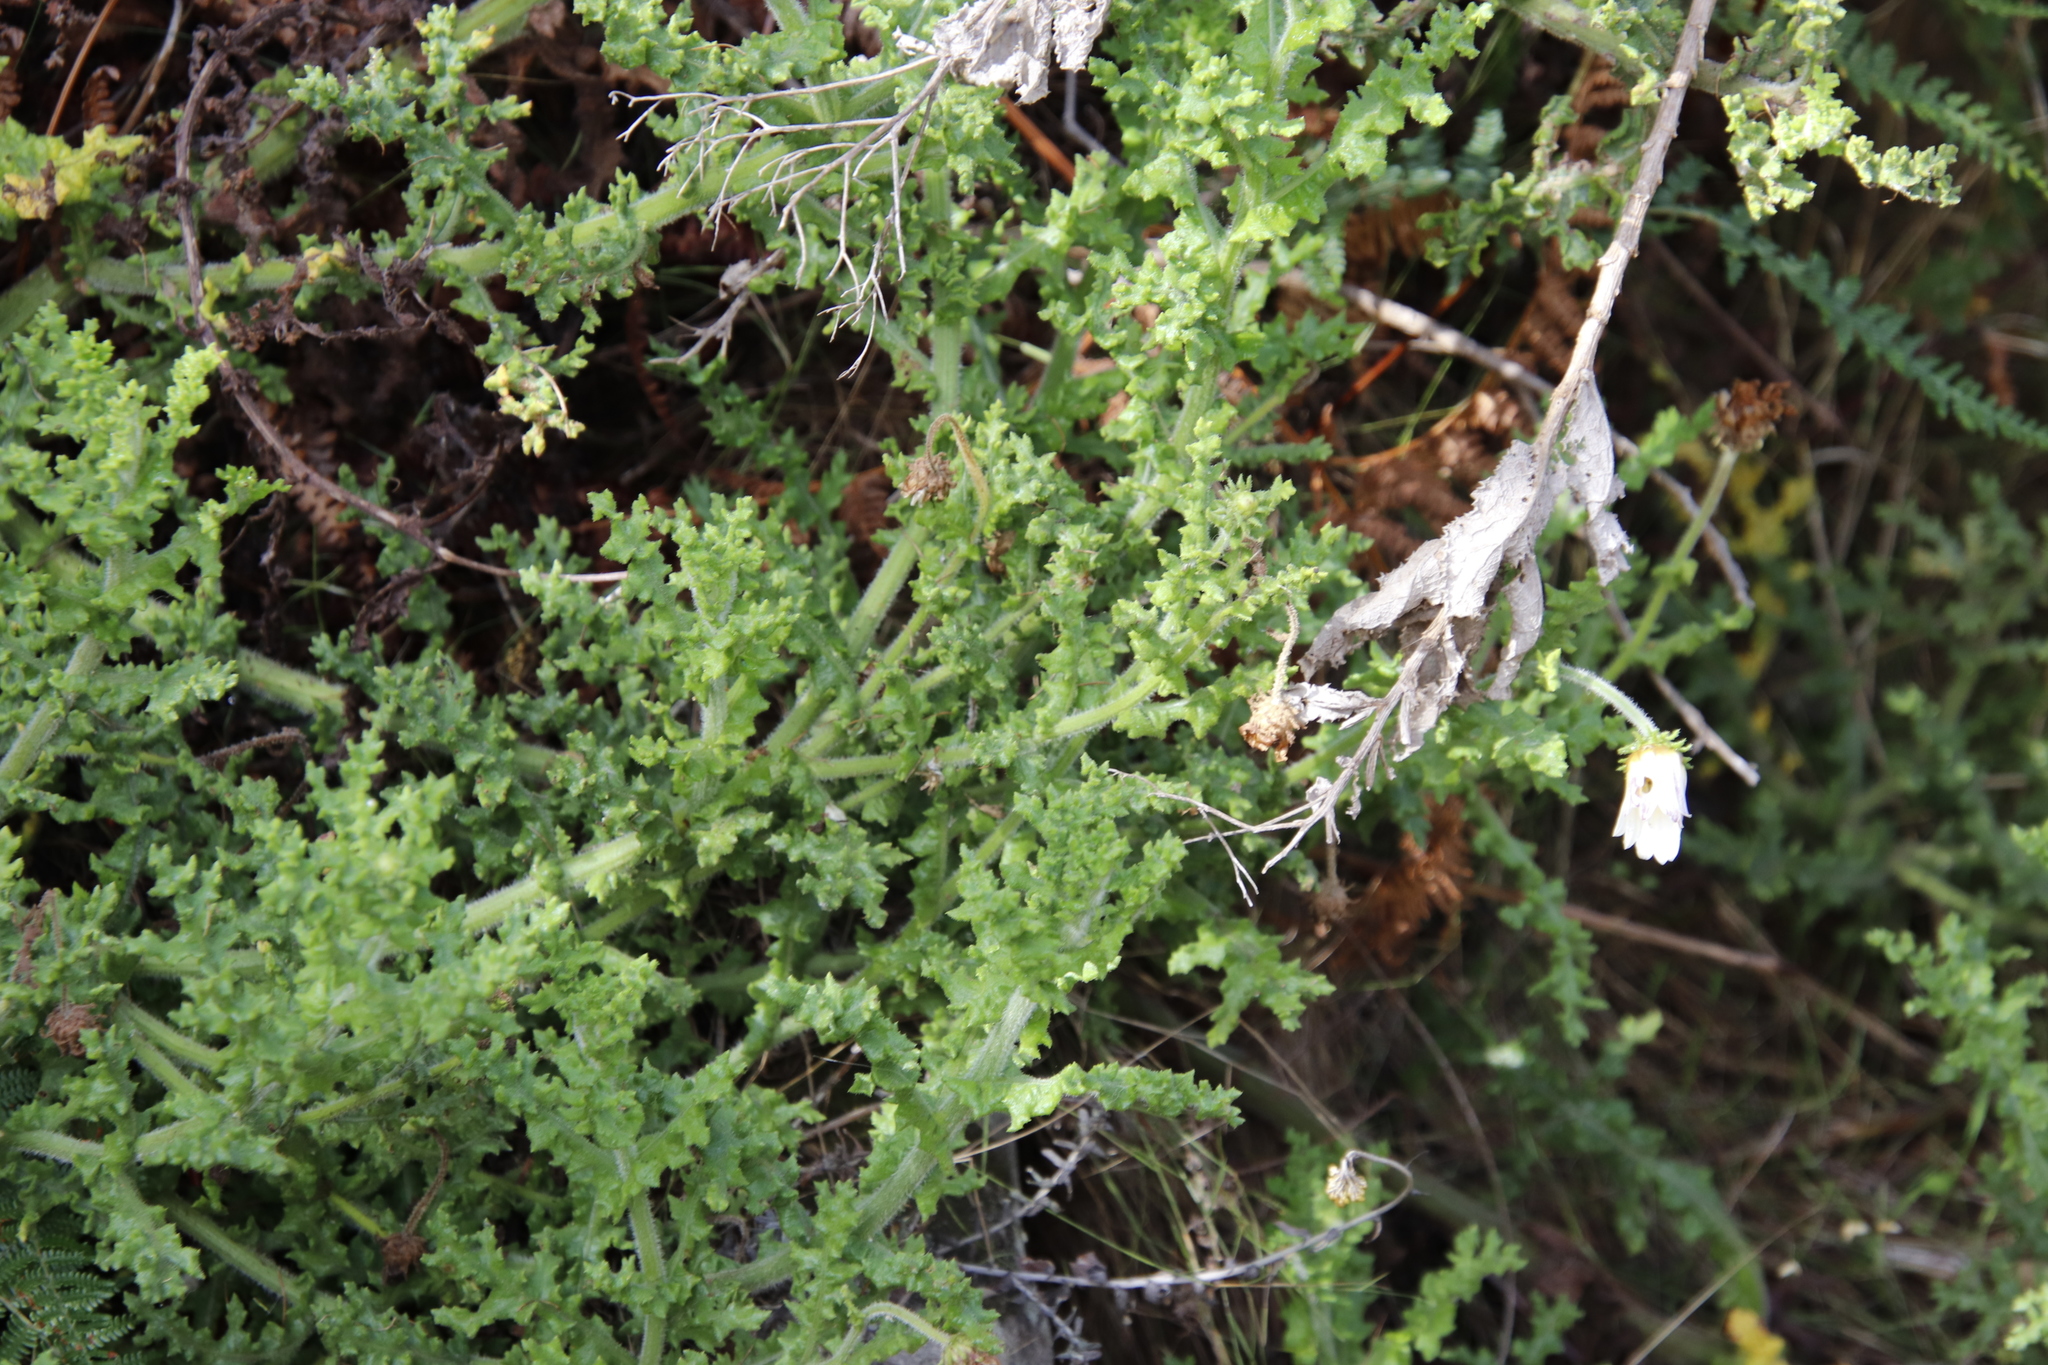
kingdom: Plantae
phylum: Tracheophyta
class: Magnoliopsida
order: Asterales
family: Asteraceae
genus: Arctotis
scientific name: Arctotis aspera
